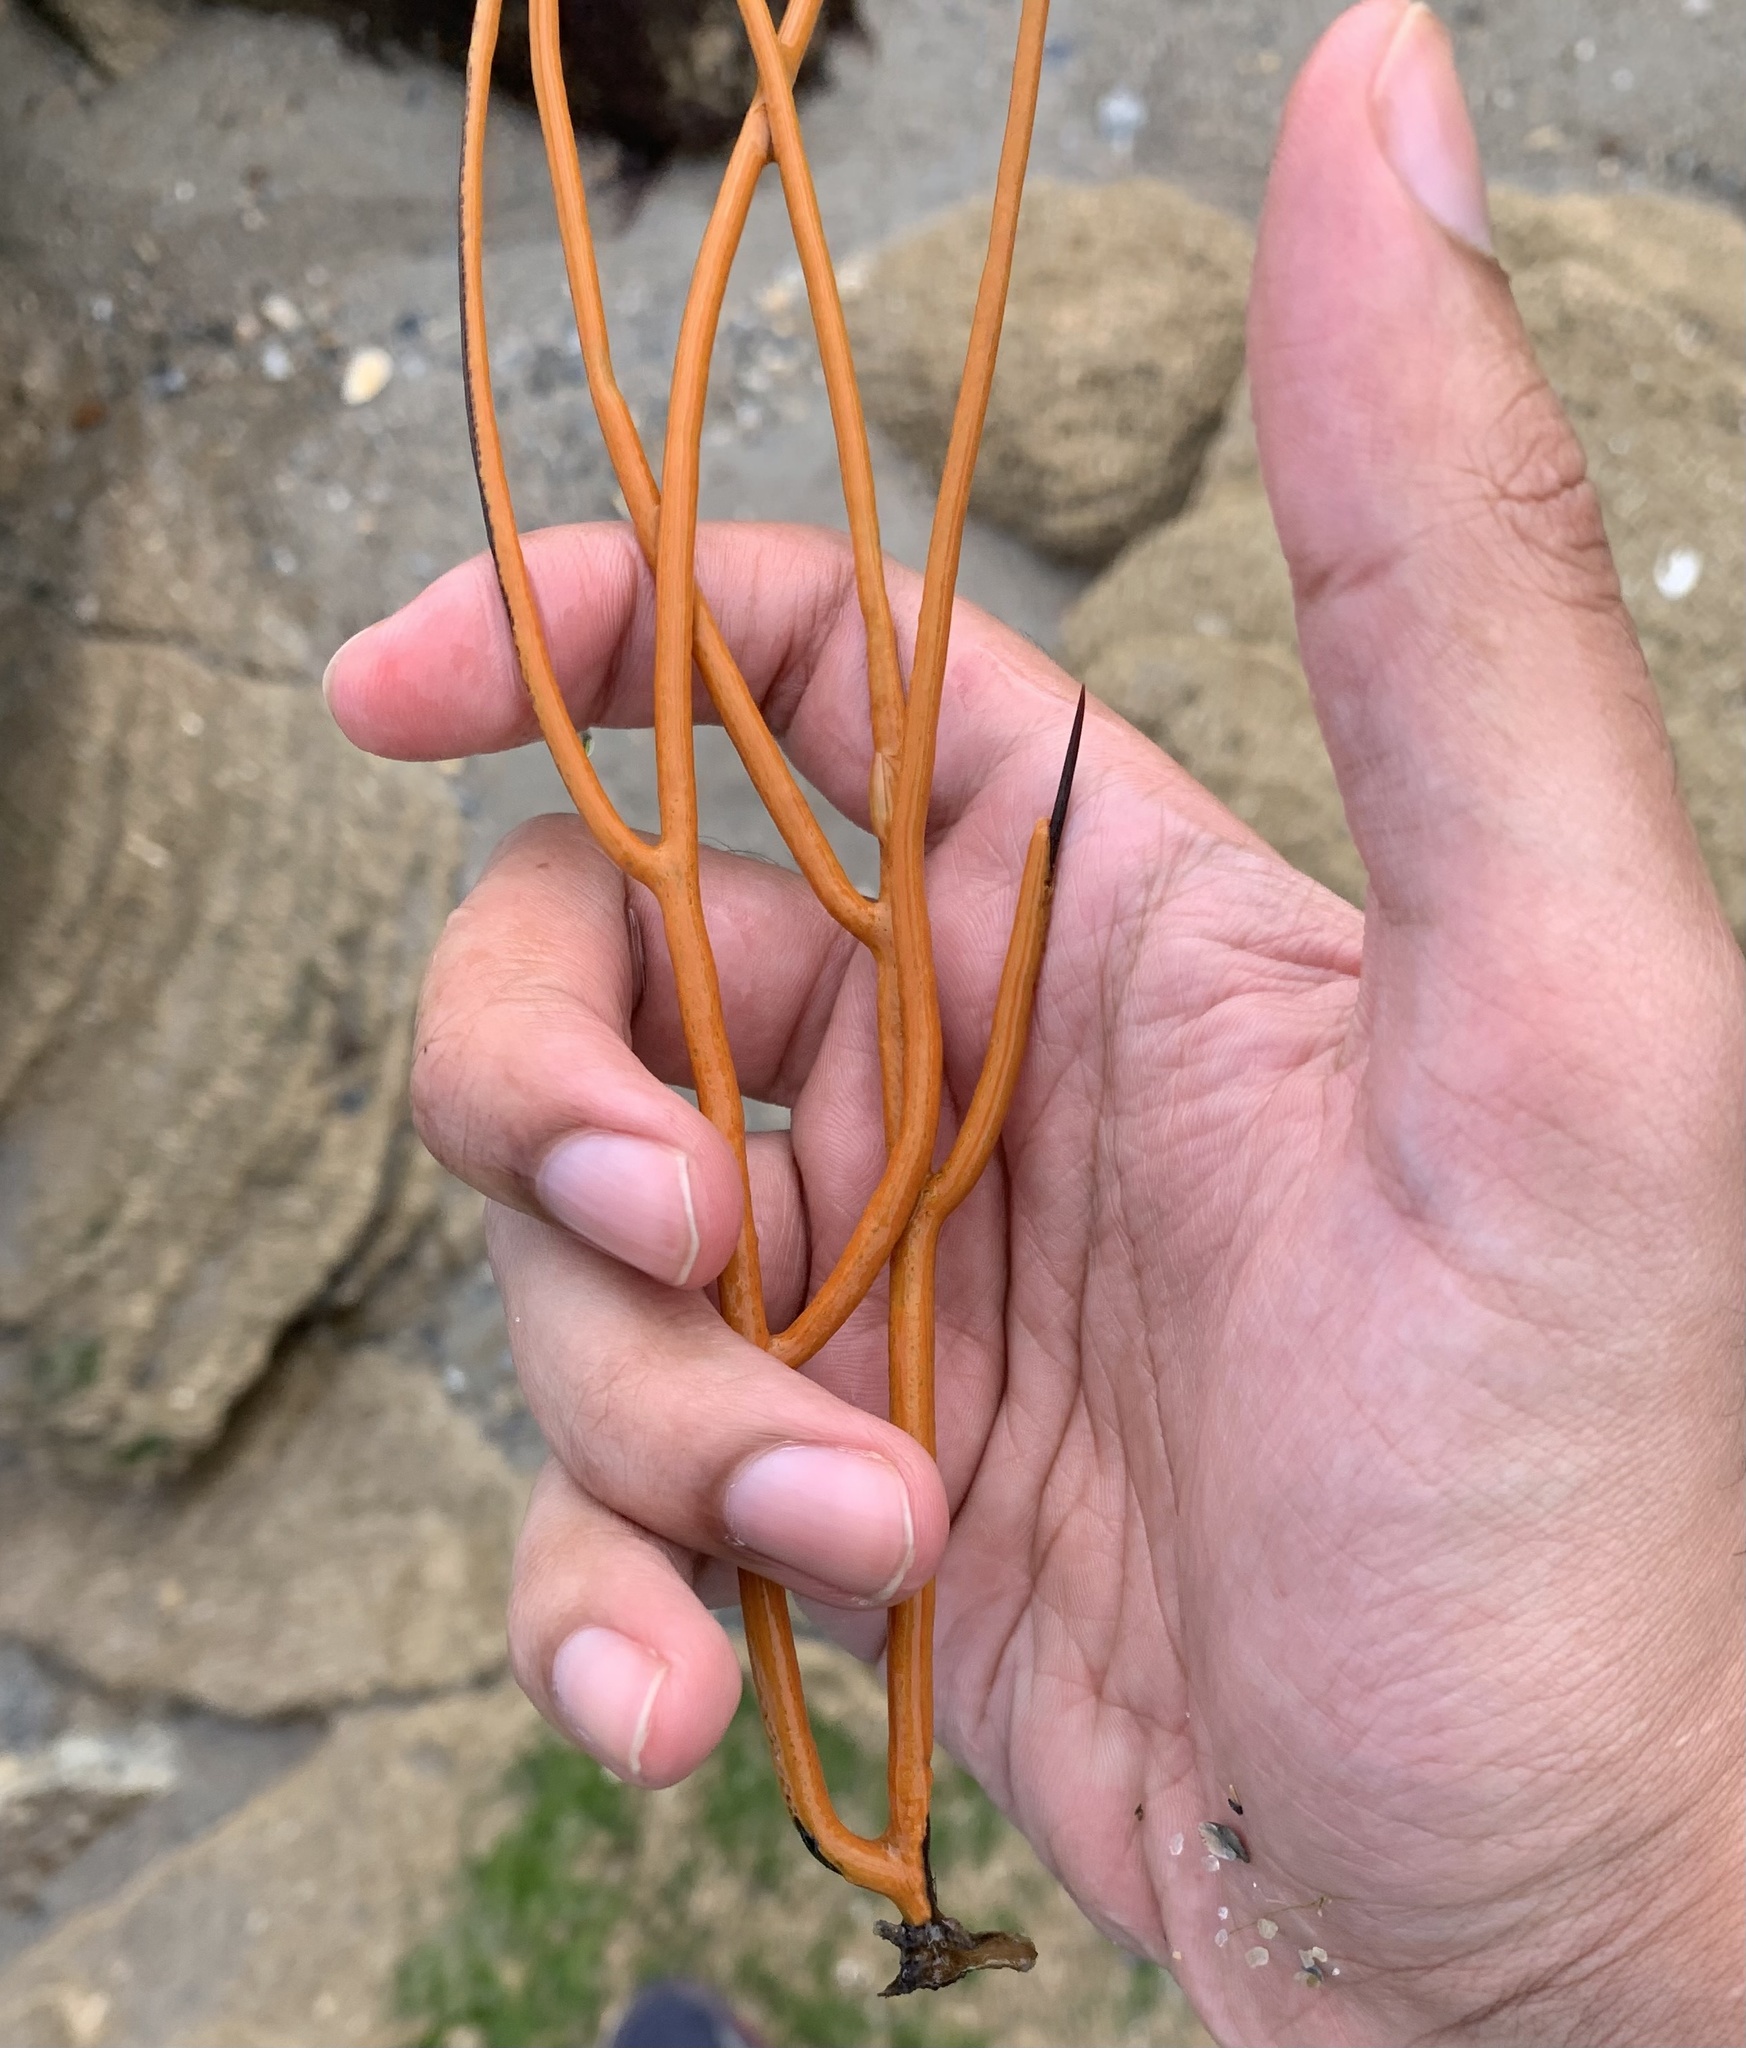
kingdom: Animalia
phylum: Cnidaria
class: Anthozoa
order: Malacalcyonacea
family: Gorgoniidae
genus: Leptogorgia
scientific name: Leptogorgia virgulata
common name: Colorful sea whip
